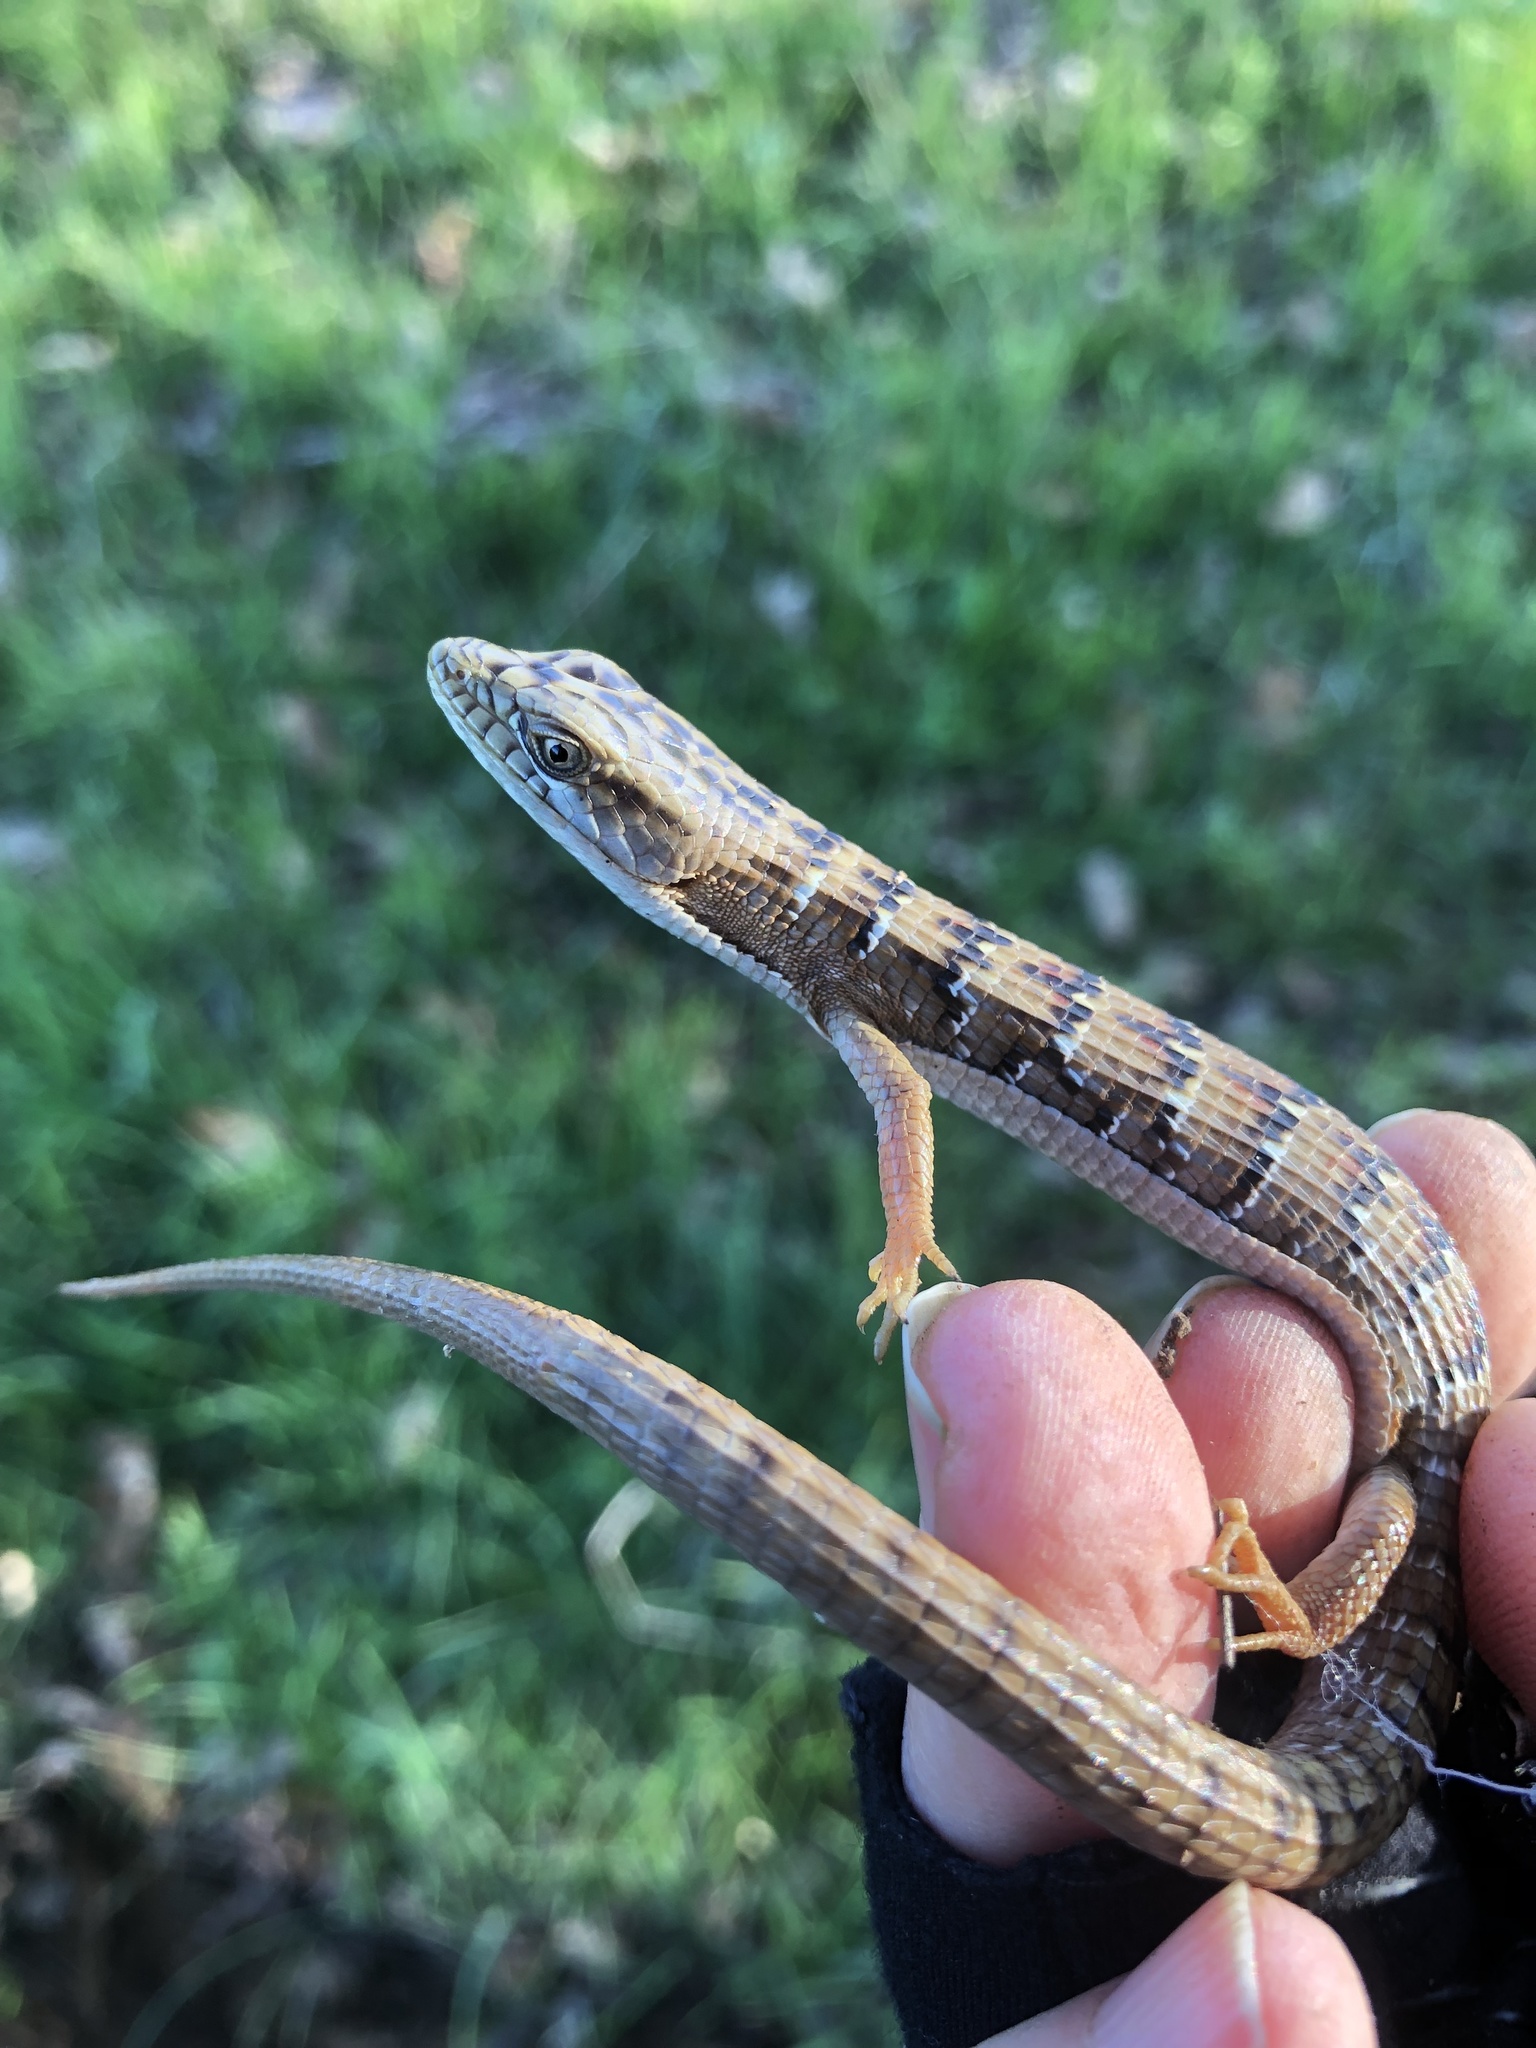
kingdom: Animalia
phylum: Chordata
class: Squamata
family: Anguidae
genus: Elgaria
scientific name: Elgaria multicarinata
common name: Southern alligator lizard
